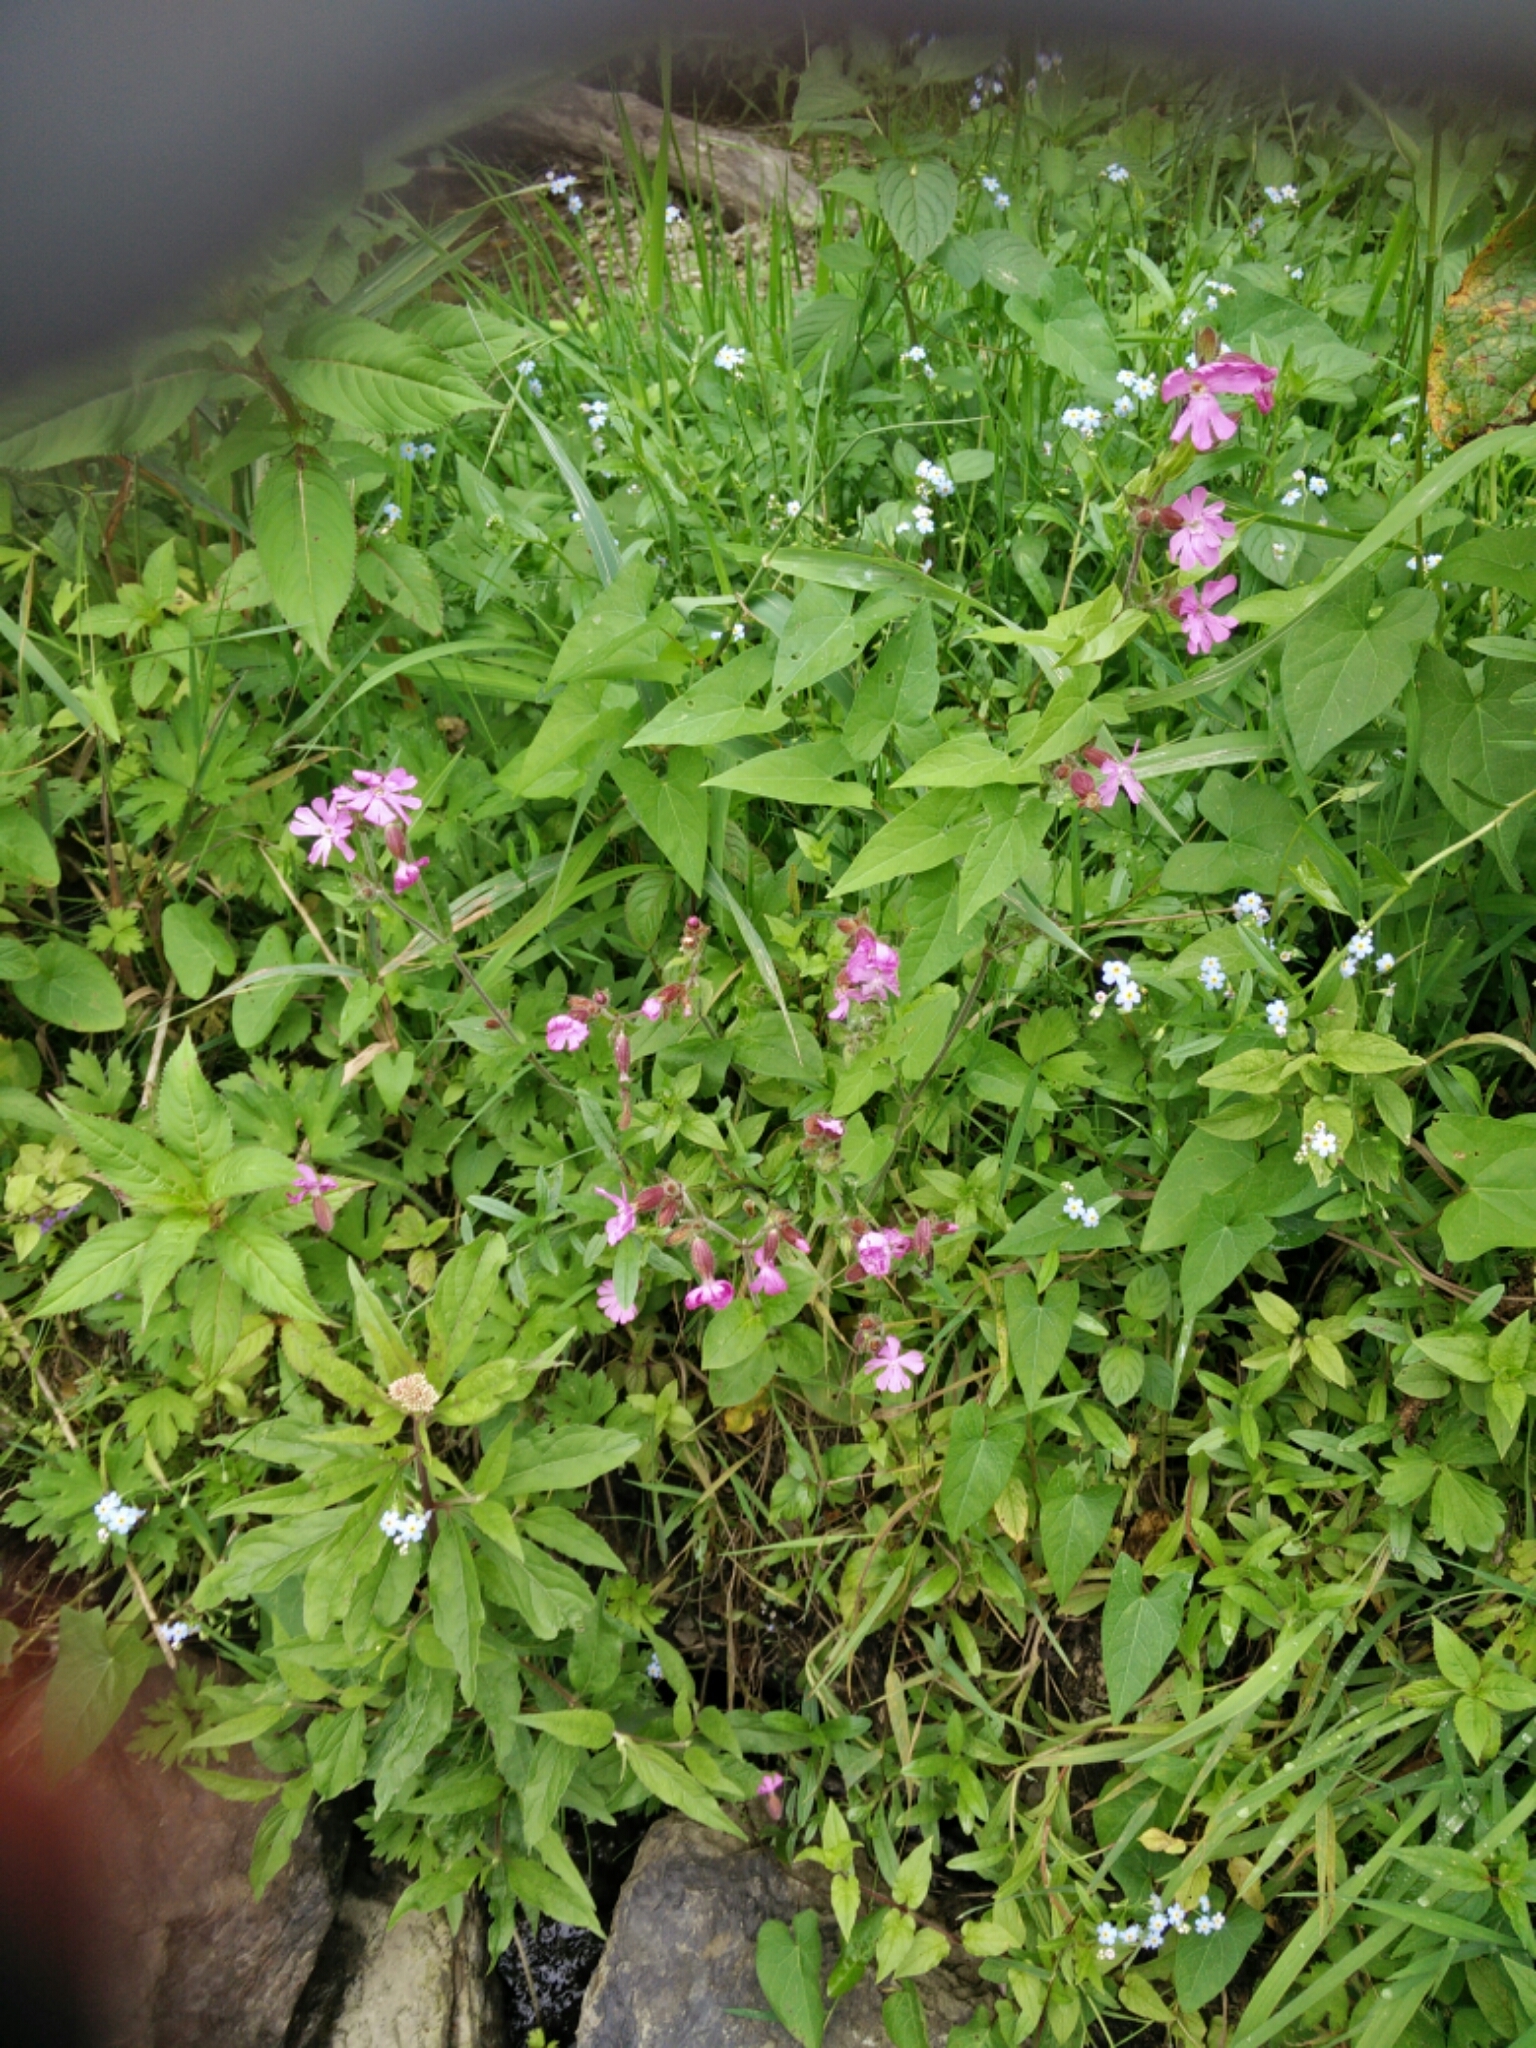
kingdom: Plantae
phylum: Tracheophyta
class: Magnoliopsida
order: Caryophyllales
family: Caryophyllaceae
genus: Silene
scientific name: Silene dioica
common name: Red campion
